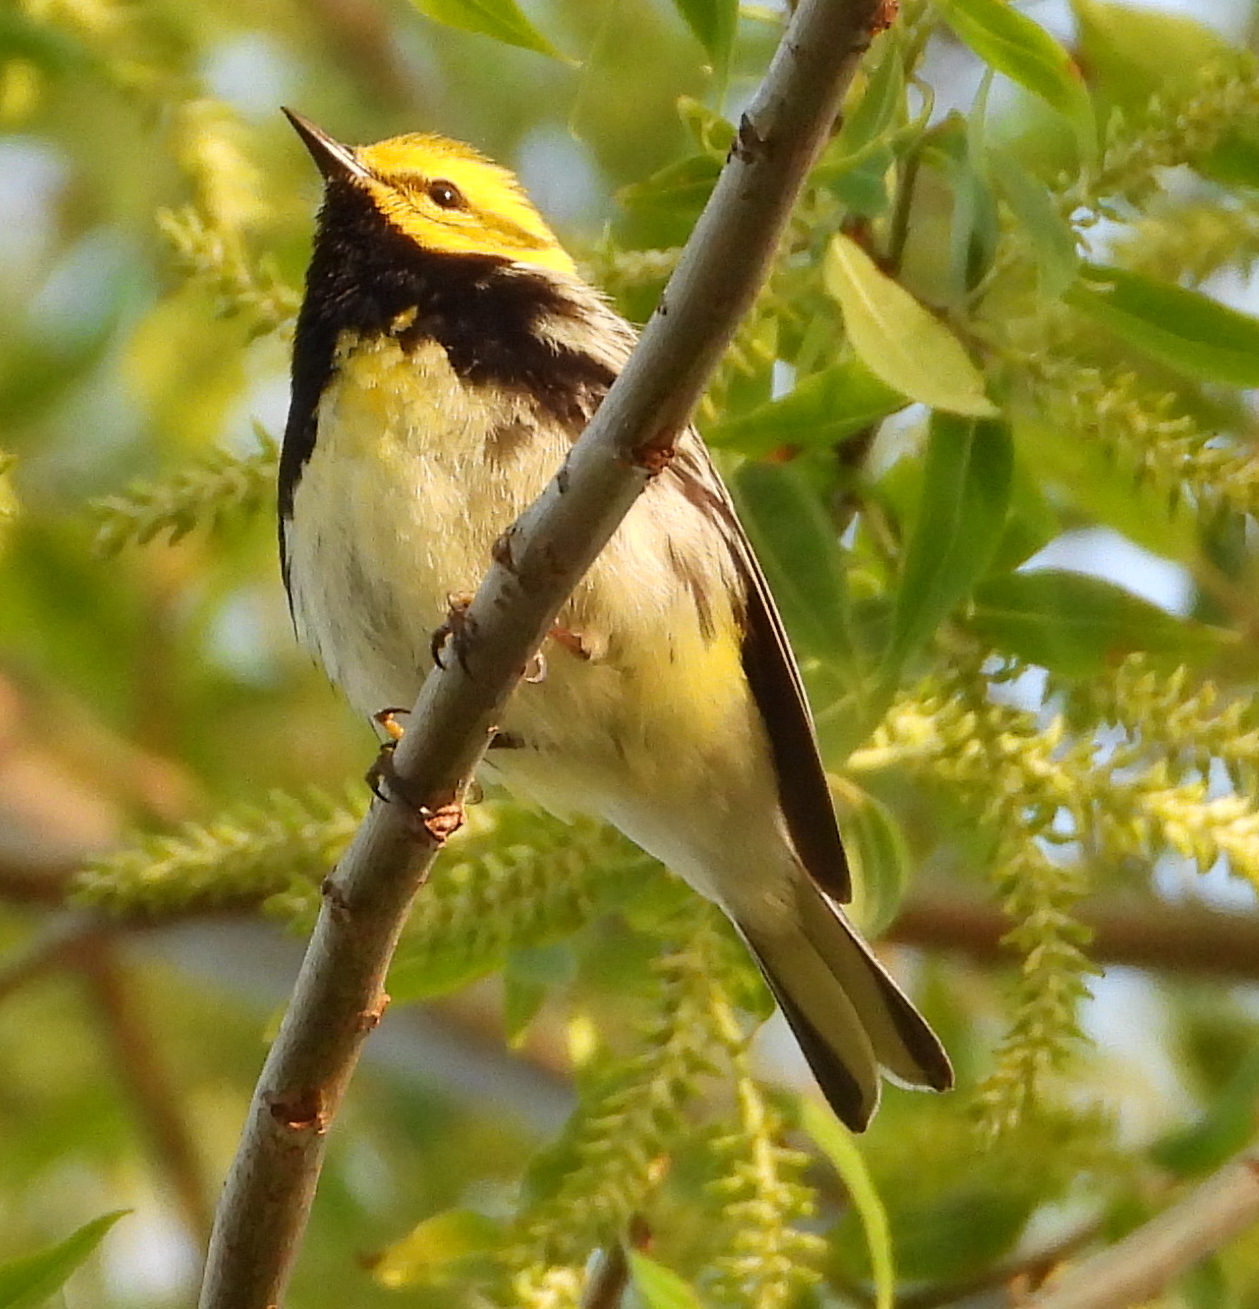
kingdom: Animalia
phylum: Chordata
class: Aves
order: Passeriformes
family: Parulidae
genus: Setophaga
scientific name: Setophaga virens
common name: Black-throated green warbler
